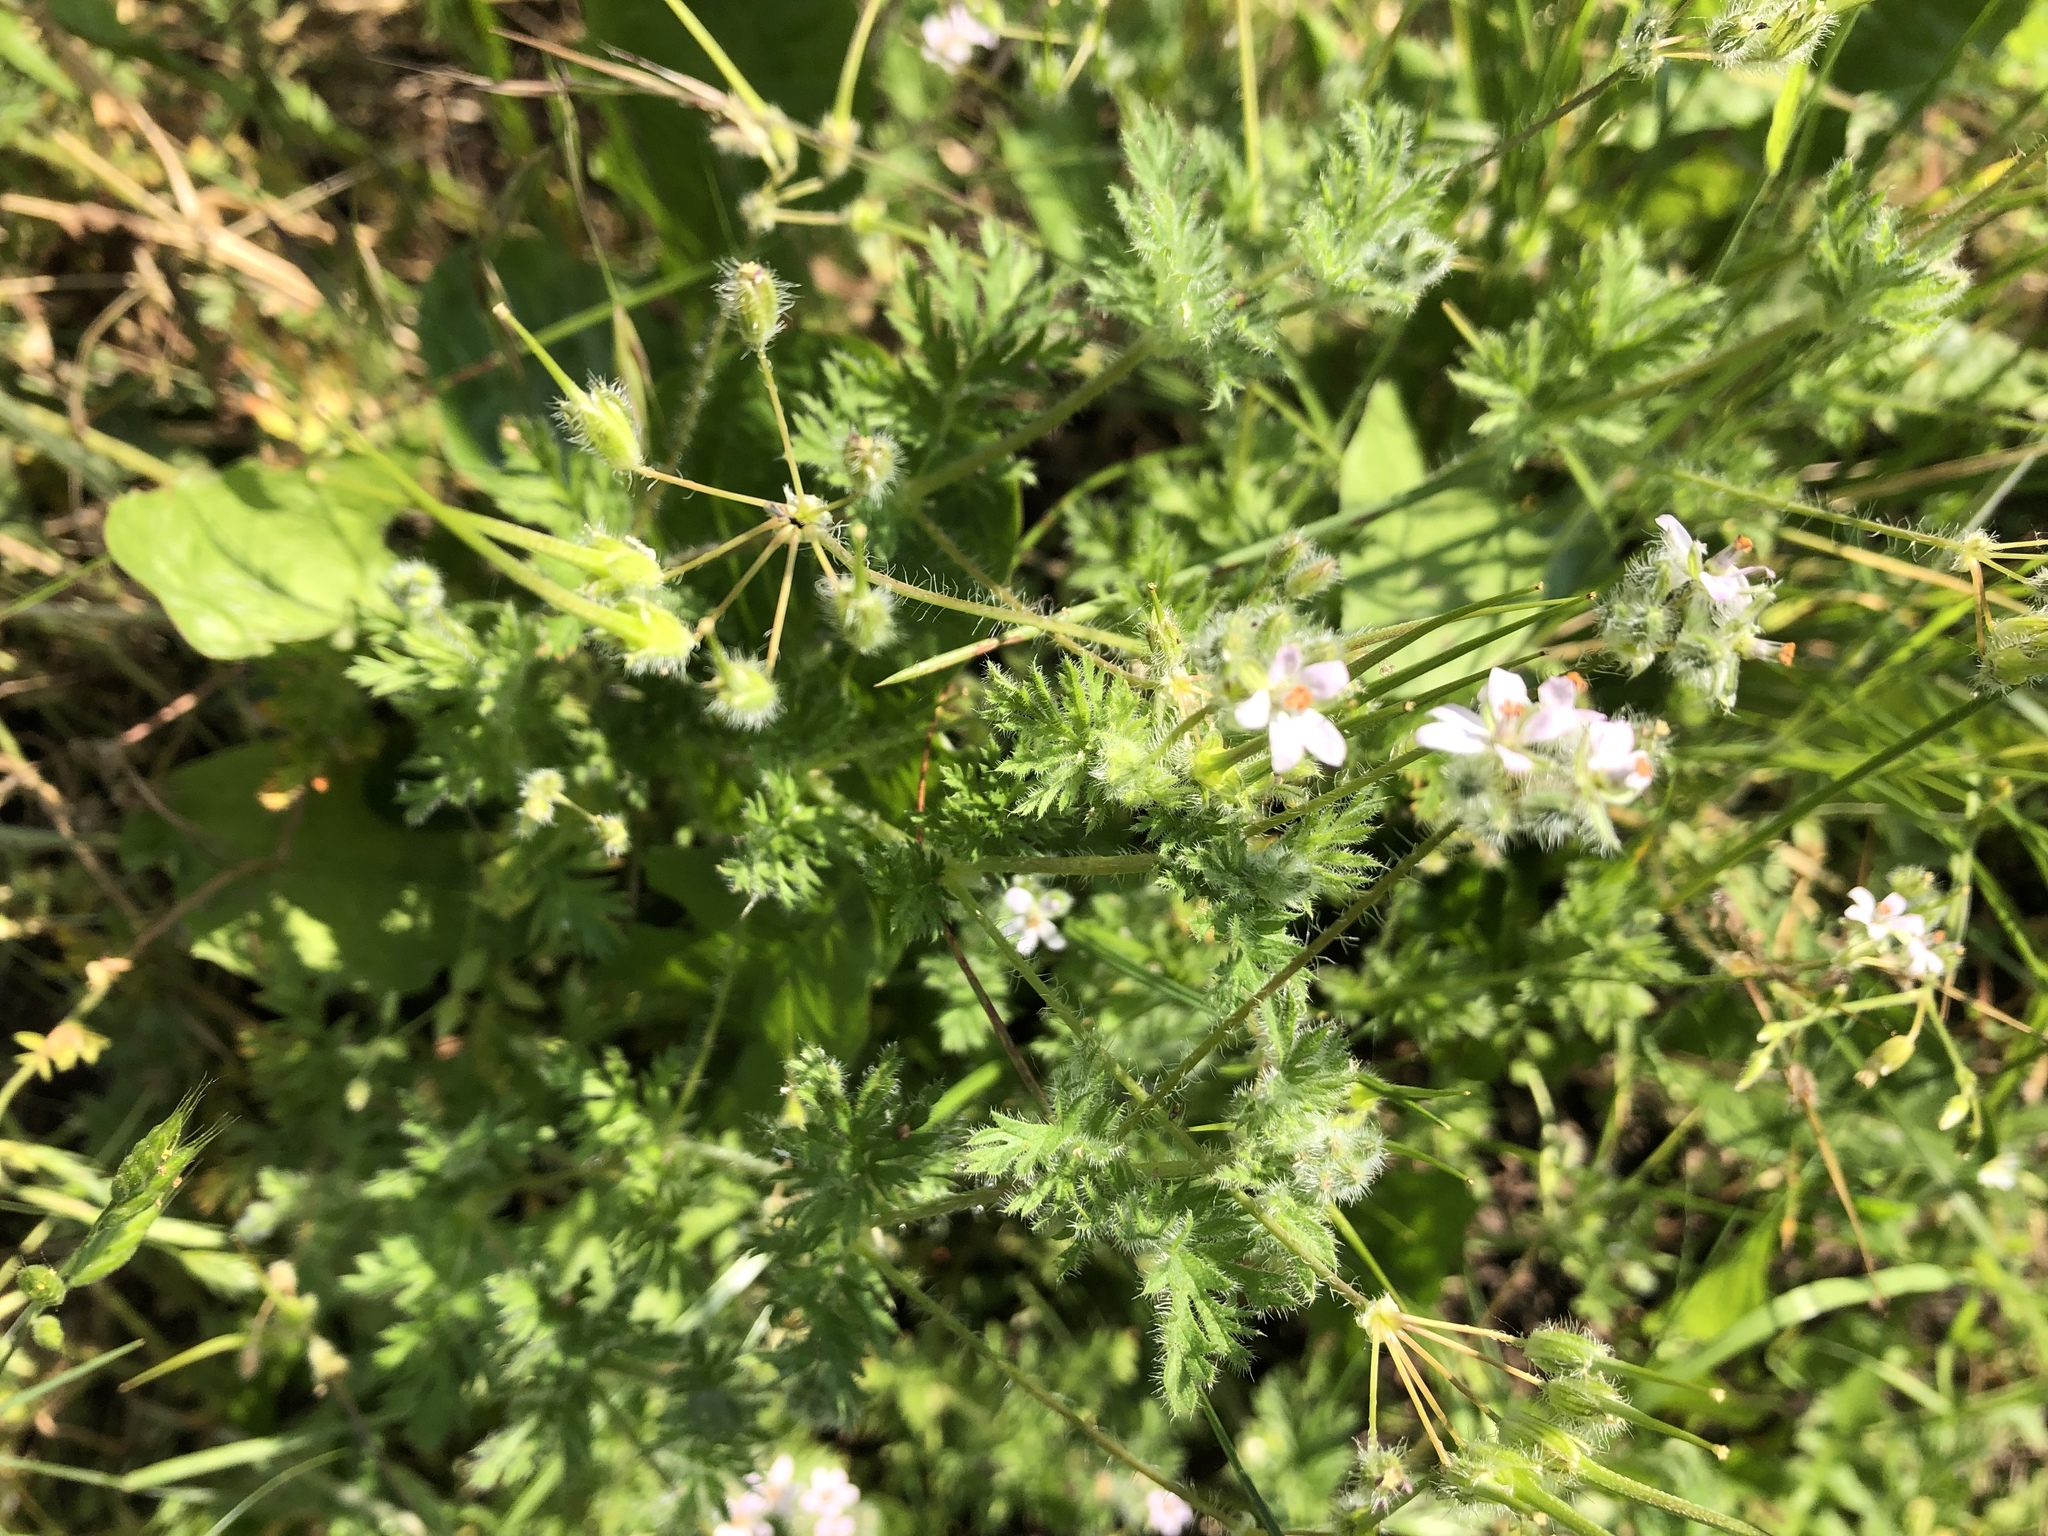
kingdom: Plantae
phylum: Tracheophyta
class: Magnoliopsida
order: Geraniales
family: Geraniaceae
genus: Erodium
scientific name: Erodium cicutarium
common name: Common stork's-bill
